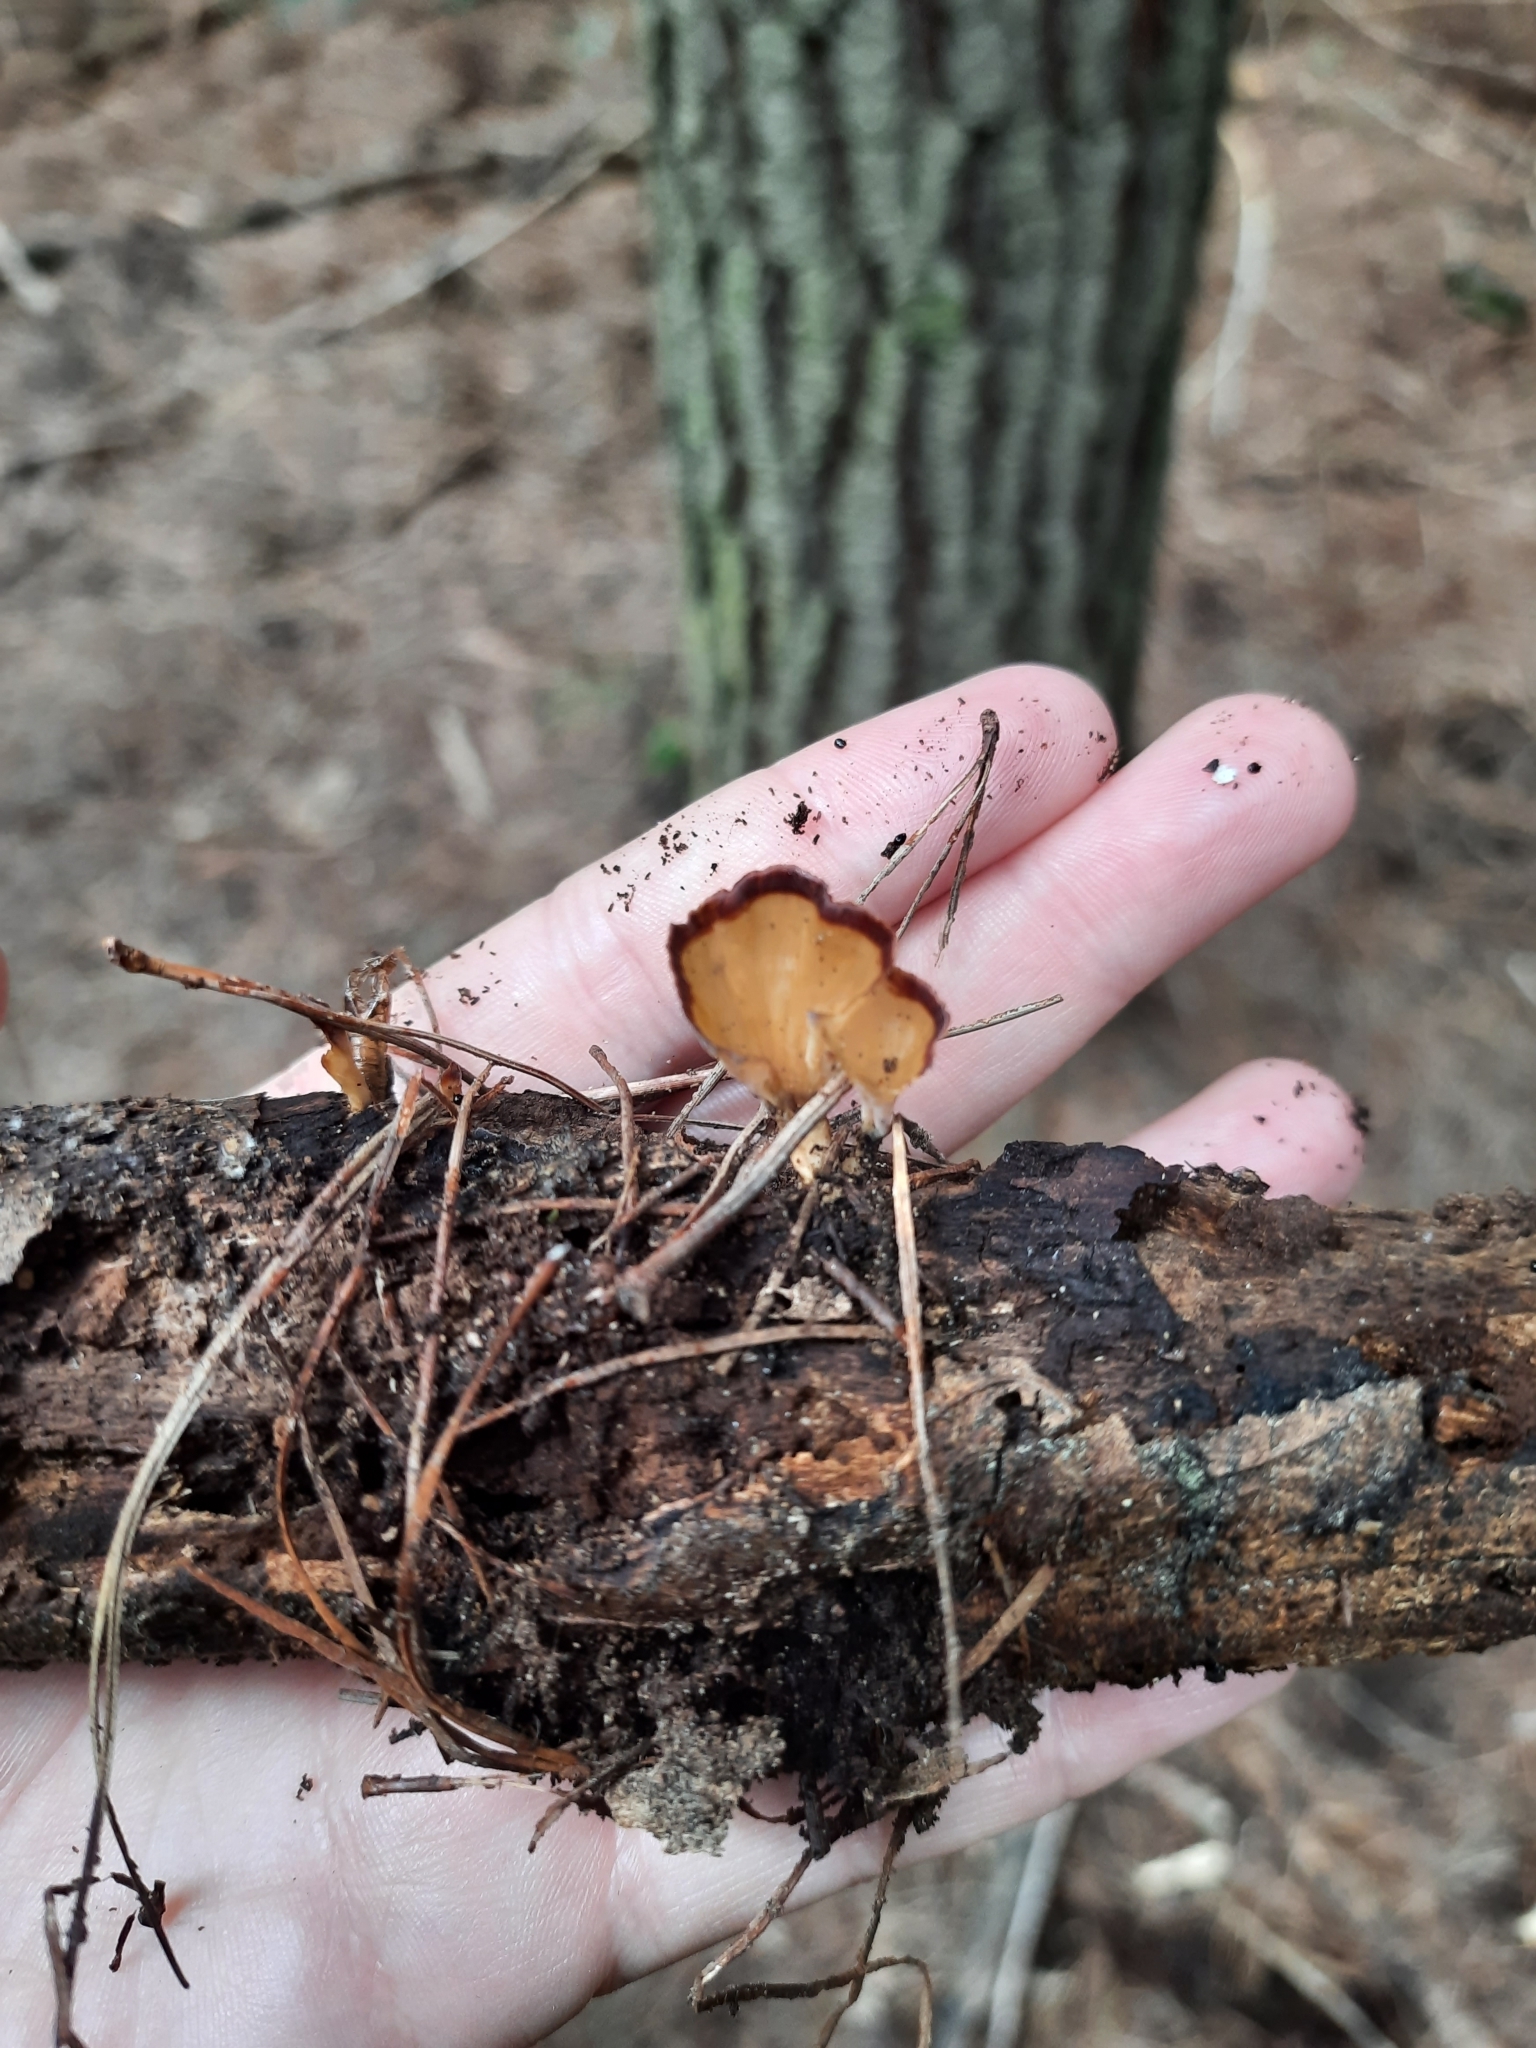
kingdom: Fungi
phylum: Basidiomycota
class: Agaricomycetes
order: Polyporales
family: Podoscyphaceae
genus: Podoscypha
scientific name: Podoscypha petalodes
